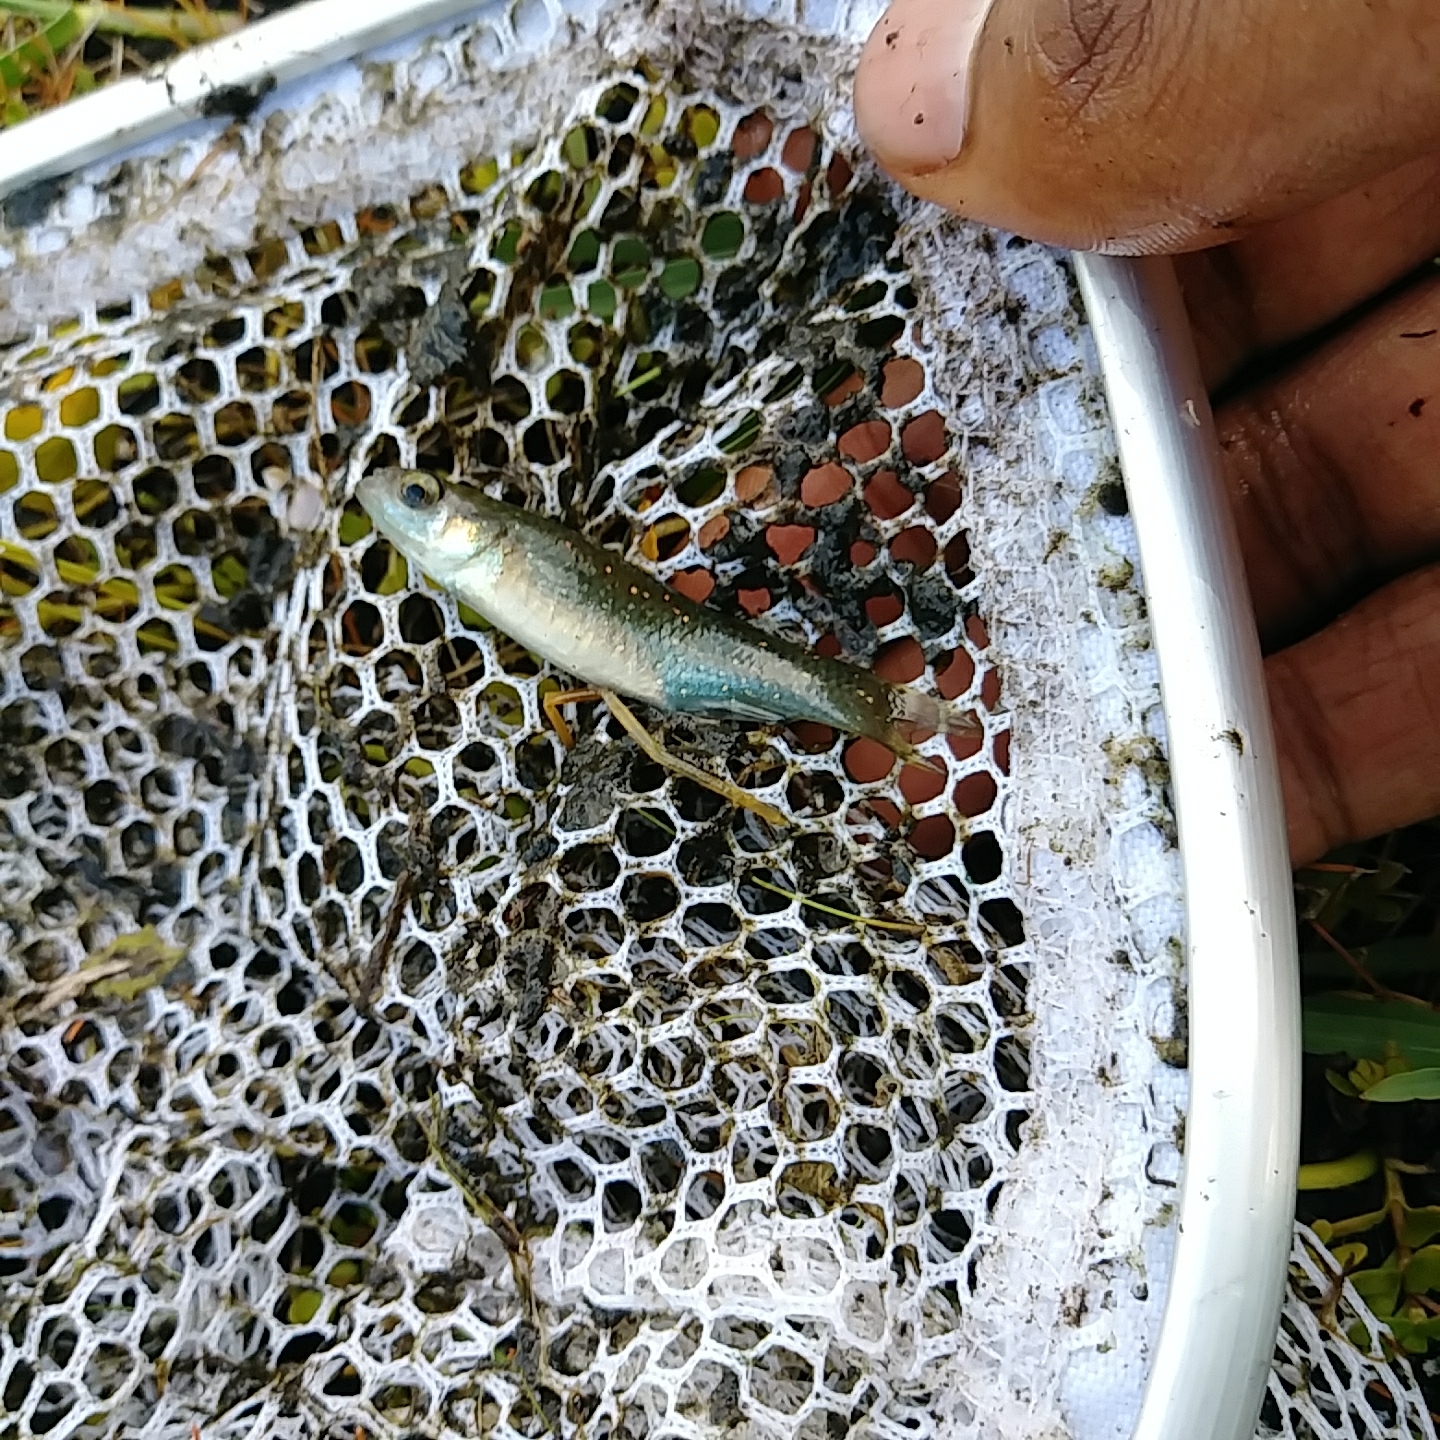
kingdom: Animalia
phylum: Chordata
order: Cyprinodontiformes
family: Fundulidae
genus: Fundulus
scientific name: Fundulus chrysotus
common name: Golden topminnow
